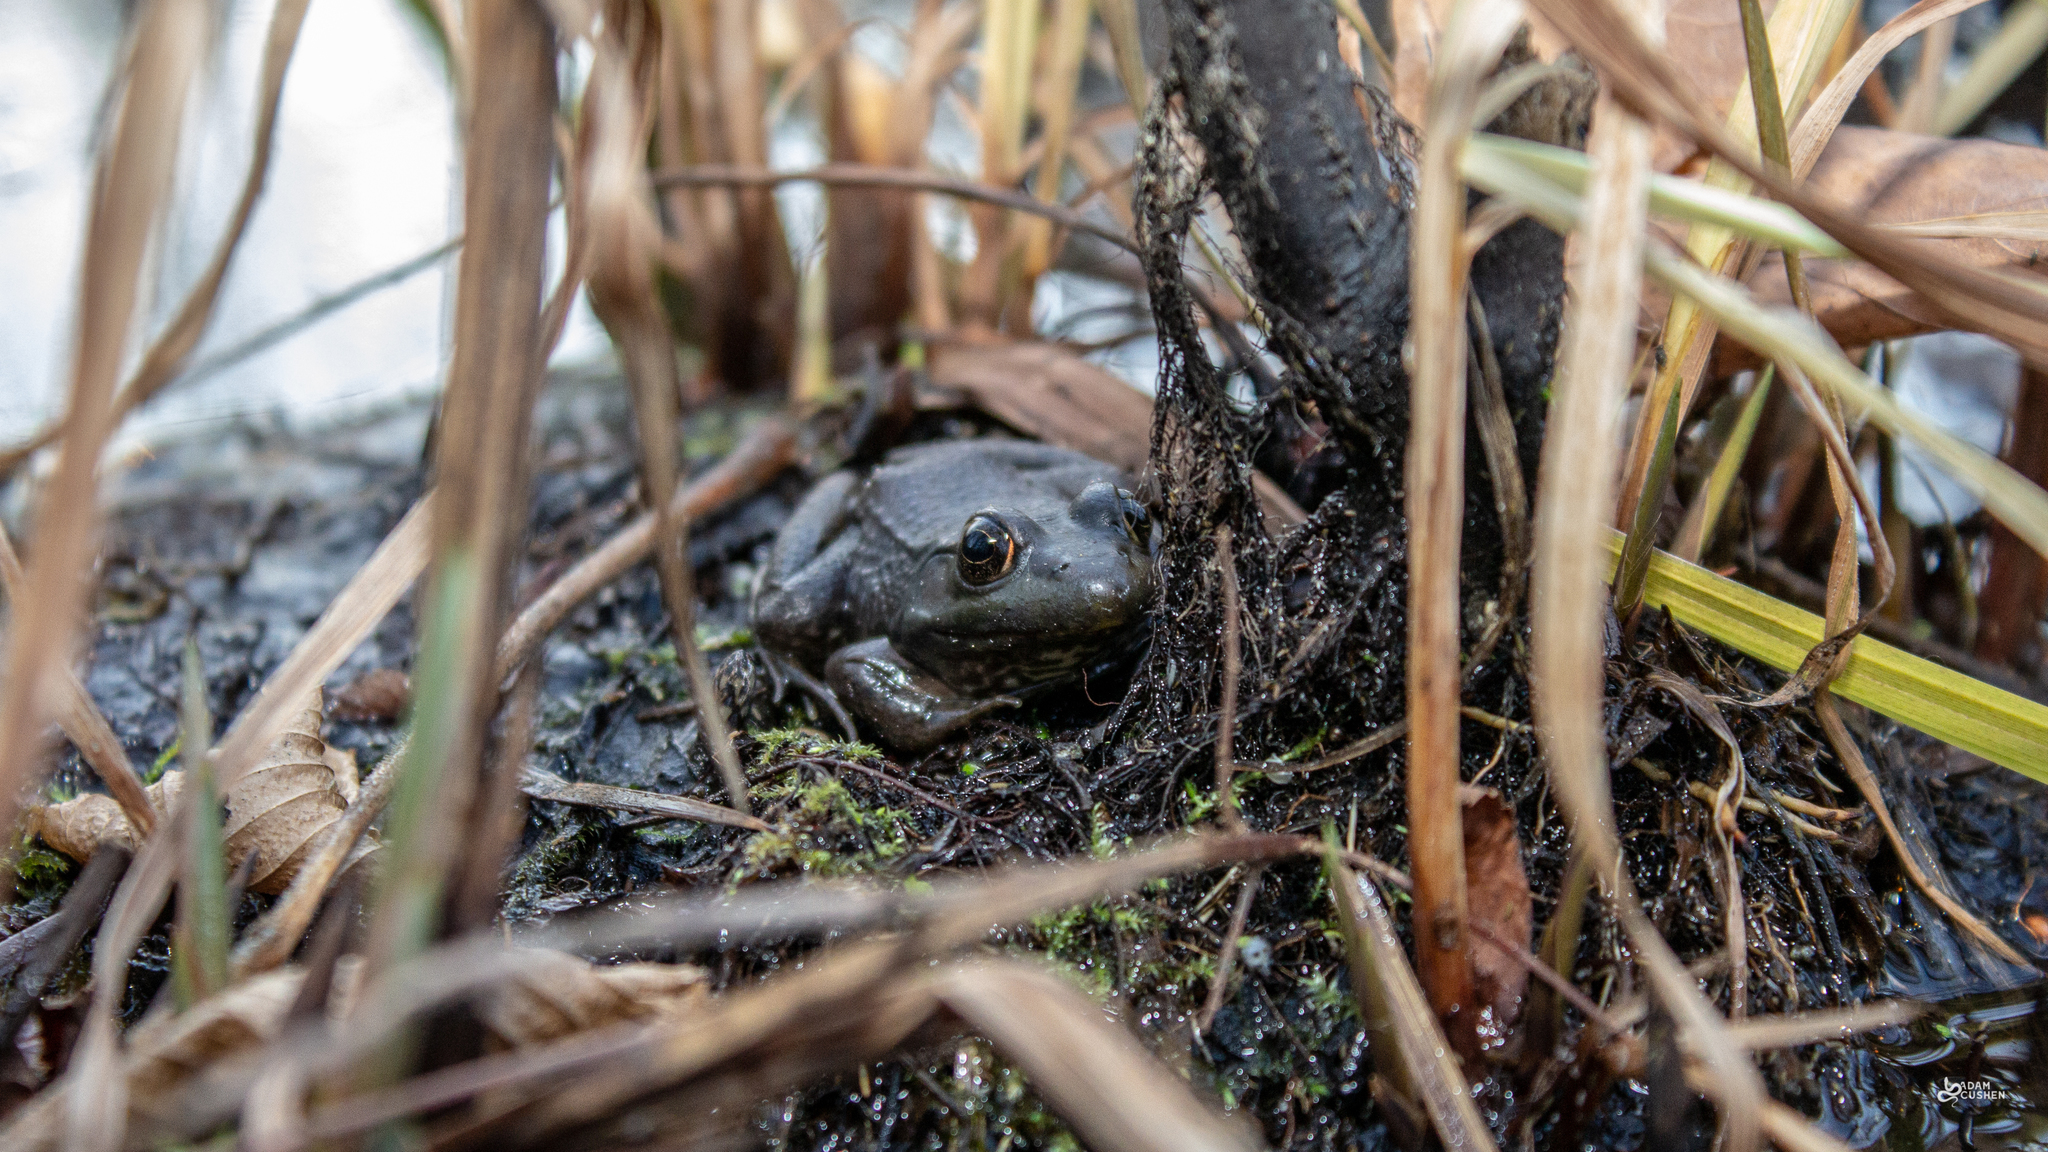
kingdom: Animalia
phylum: Chordata
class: Amphibia
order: Anura
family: Ranidae
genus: Lithobates
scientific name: Lithobates clamitans
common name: Green frog
